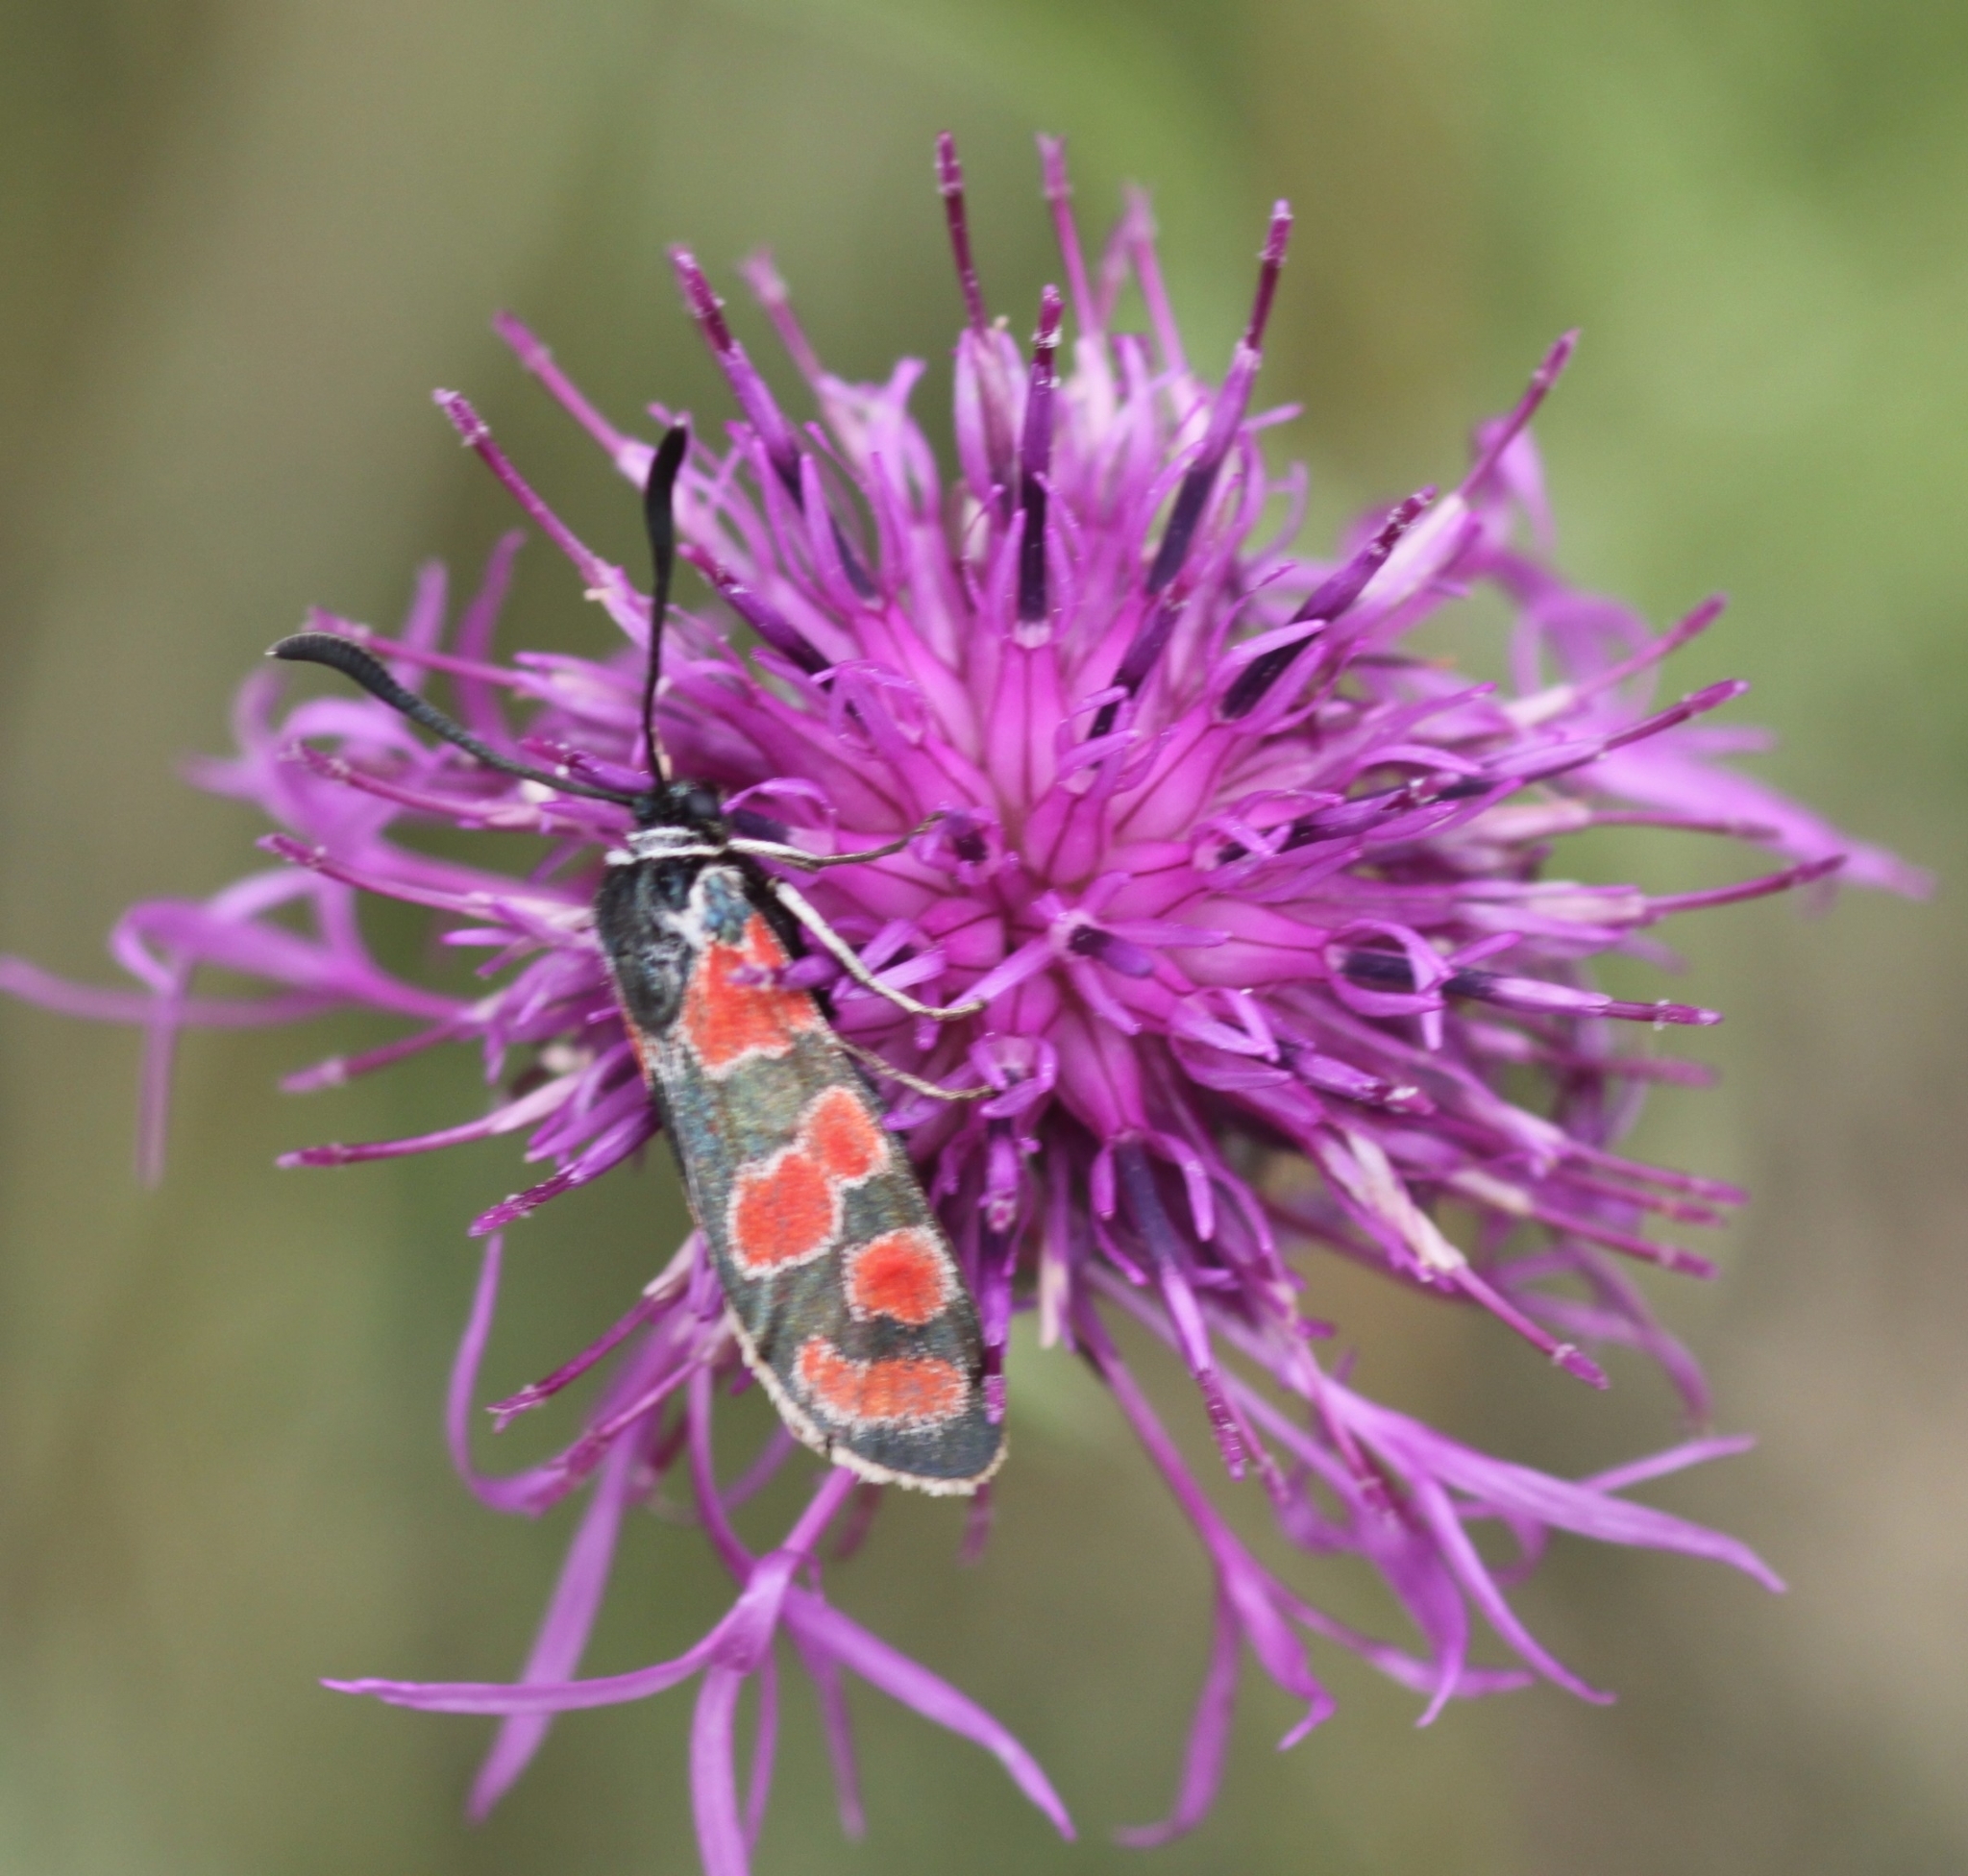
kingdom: Animalia
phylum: Arthropoda
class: Insecta
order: Lepidoptera
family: Zygaenidae
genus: Zygaena
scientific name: Zygaena carniolica
